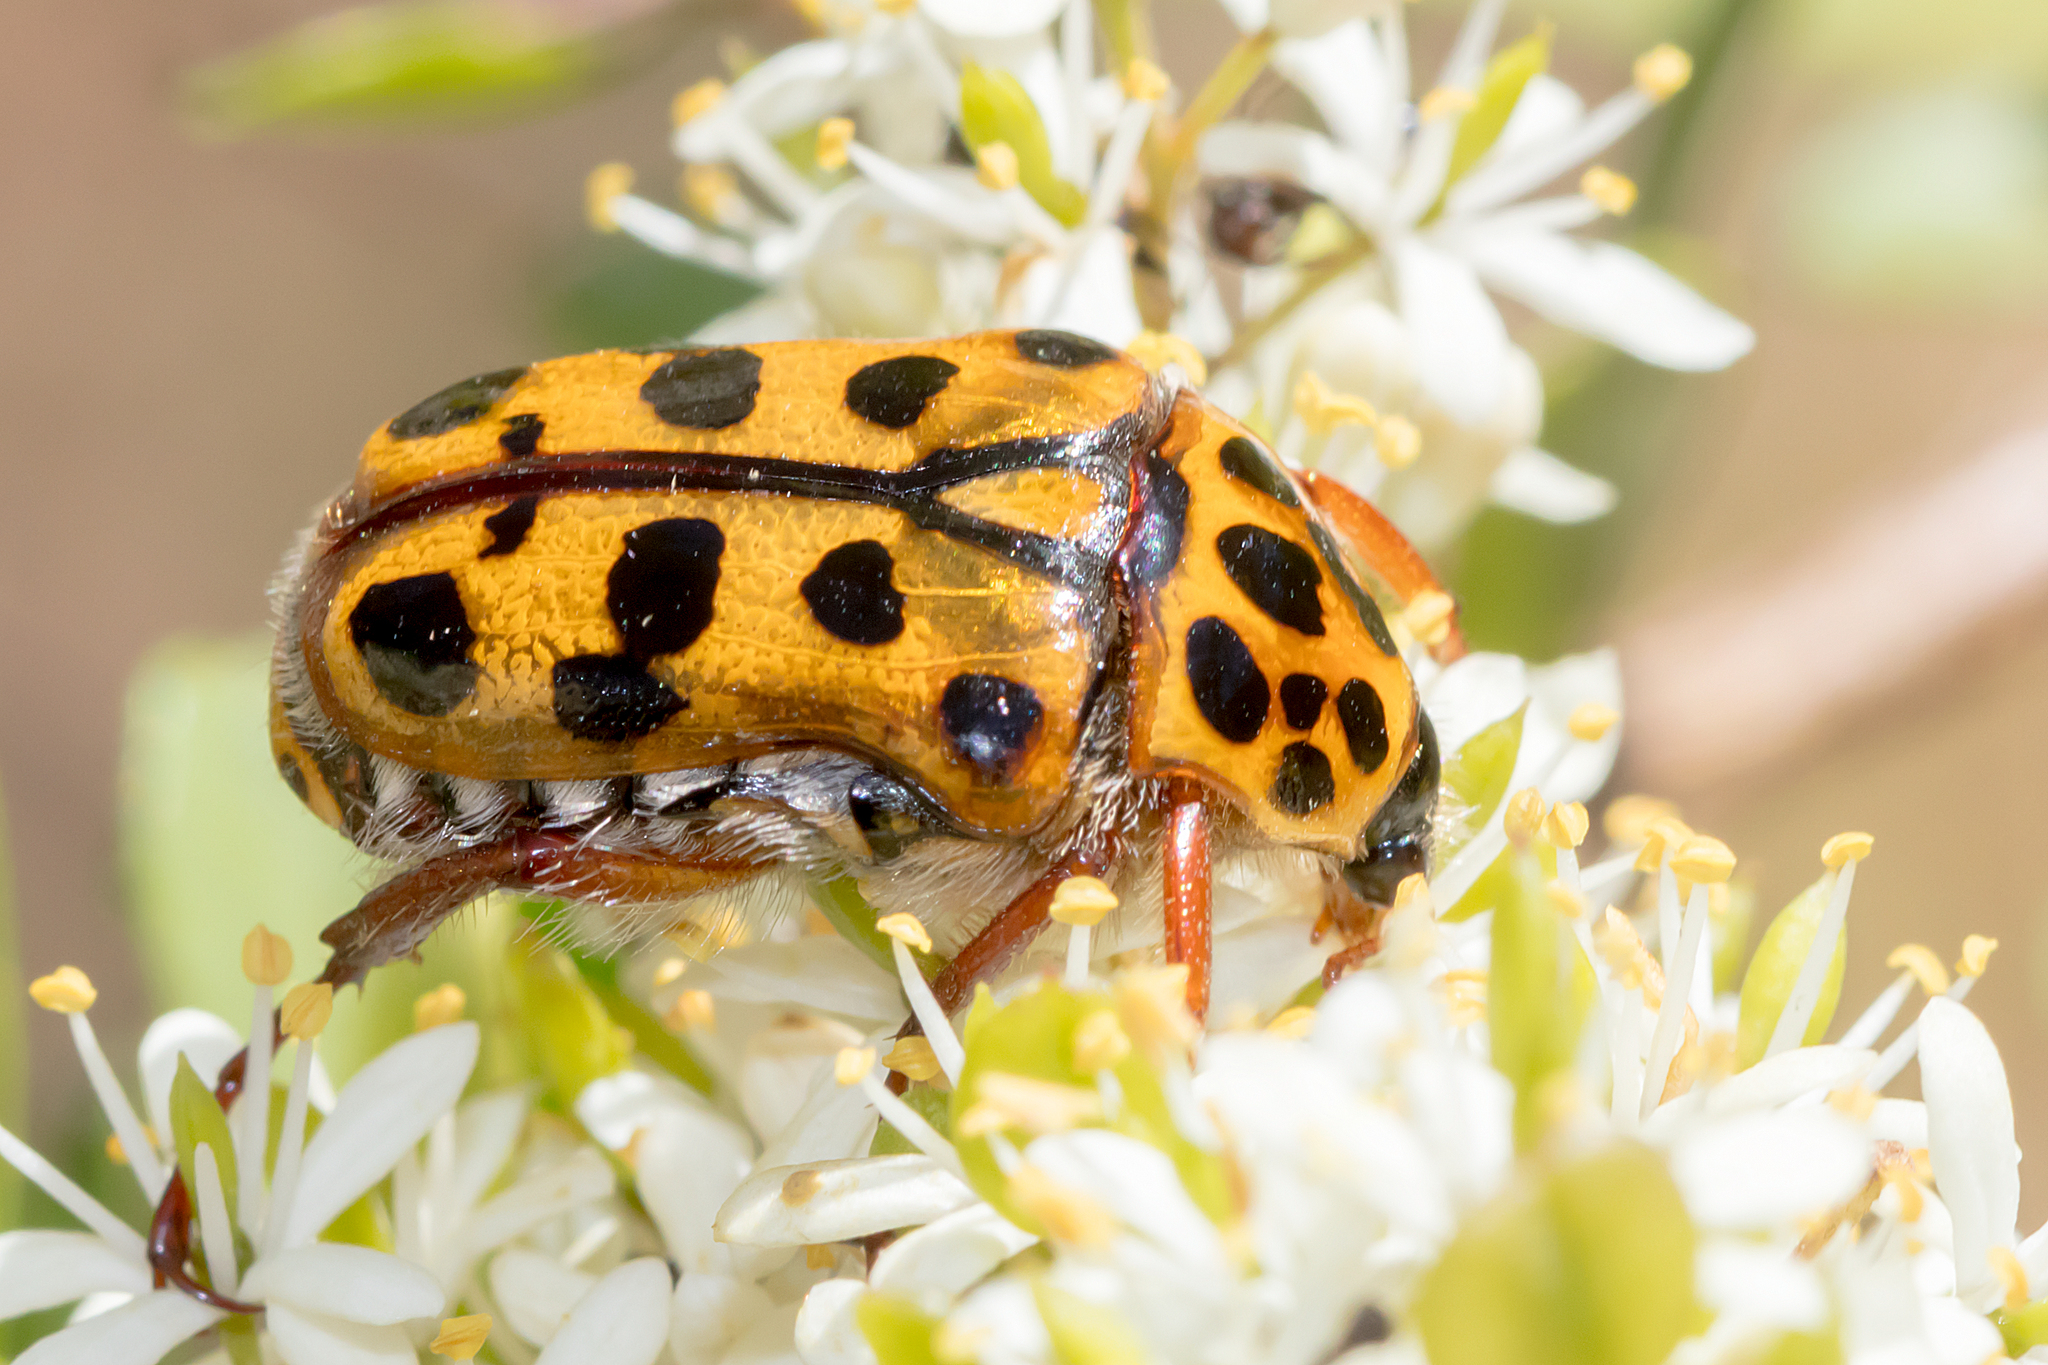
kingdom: Animalia
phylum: Arthropoda
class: Insecta
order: Coleoptera
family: Scarabaeidae
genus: Neorrhina
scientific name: Neorrhina punctatum
